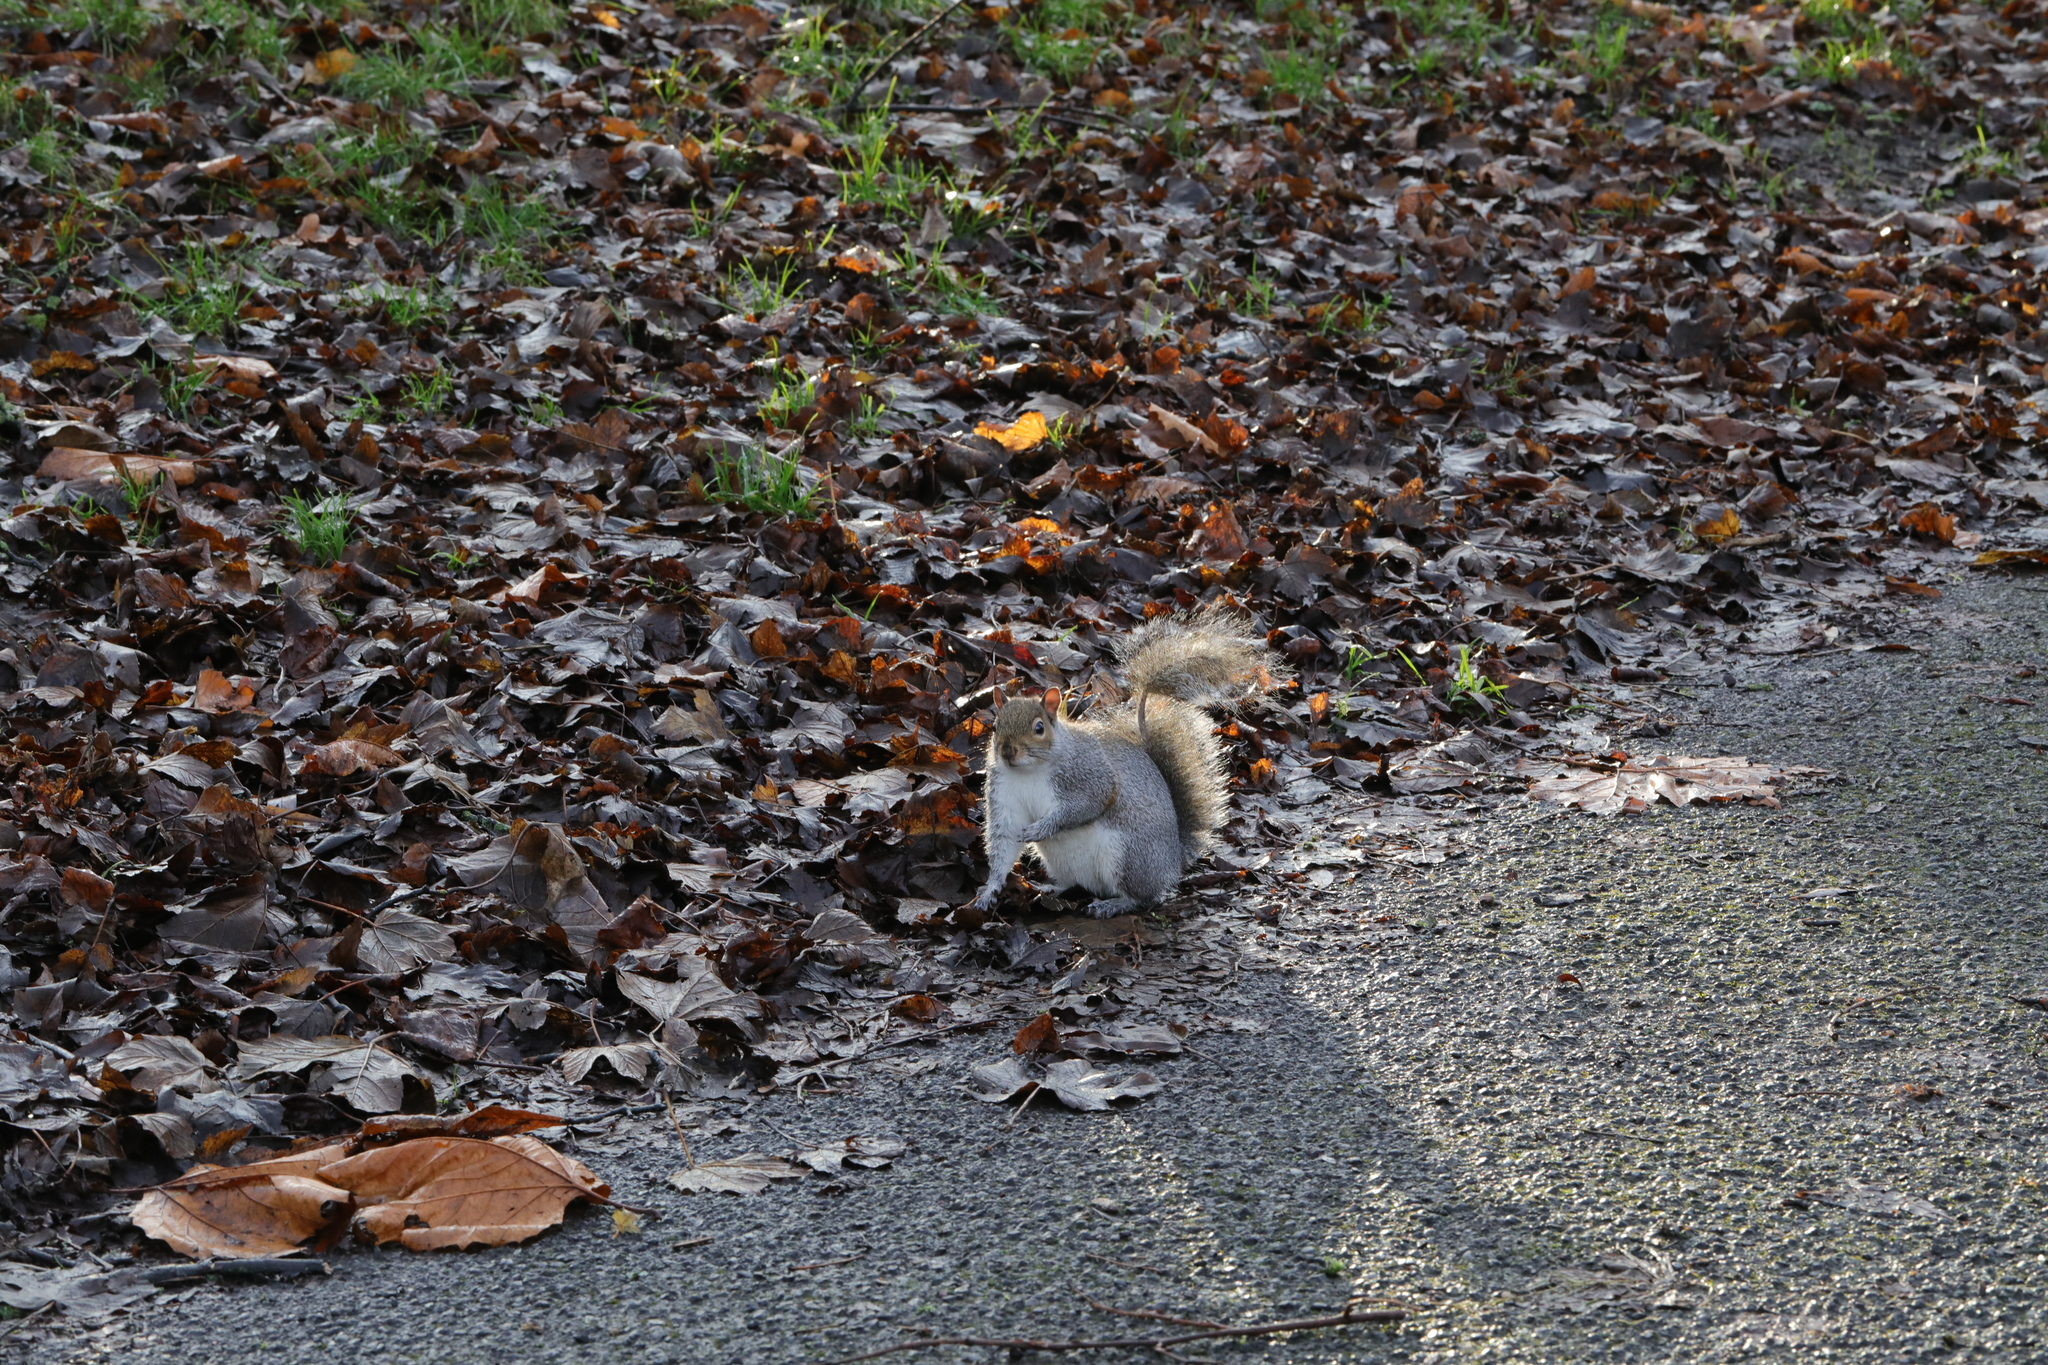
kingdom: Animalia
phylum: Chordata
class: Mammalia
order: Rodentia
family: Sciuridae
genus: Sciurus
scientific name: Sciurus carolinensis
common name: Eastern gray squirrel
